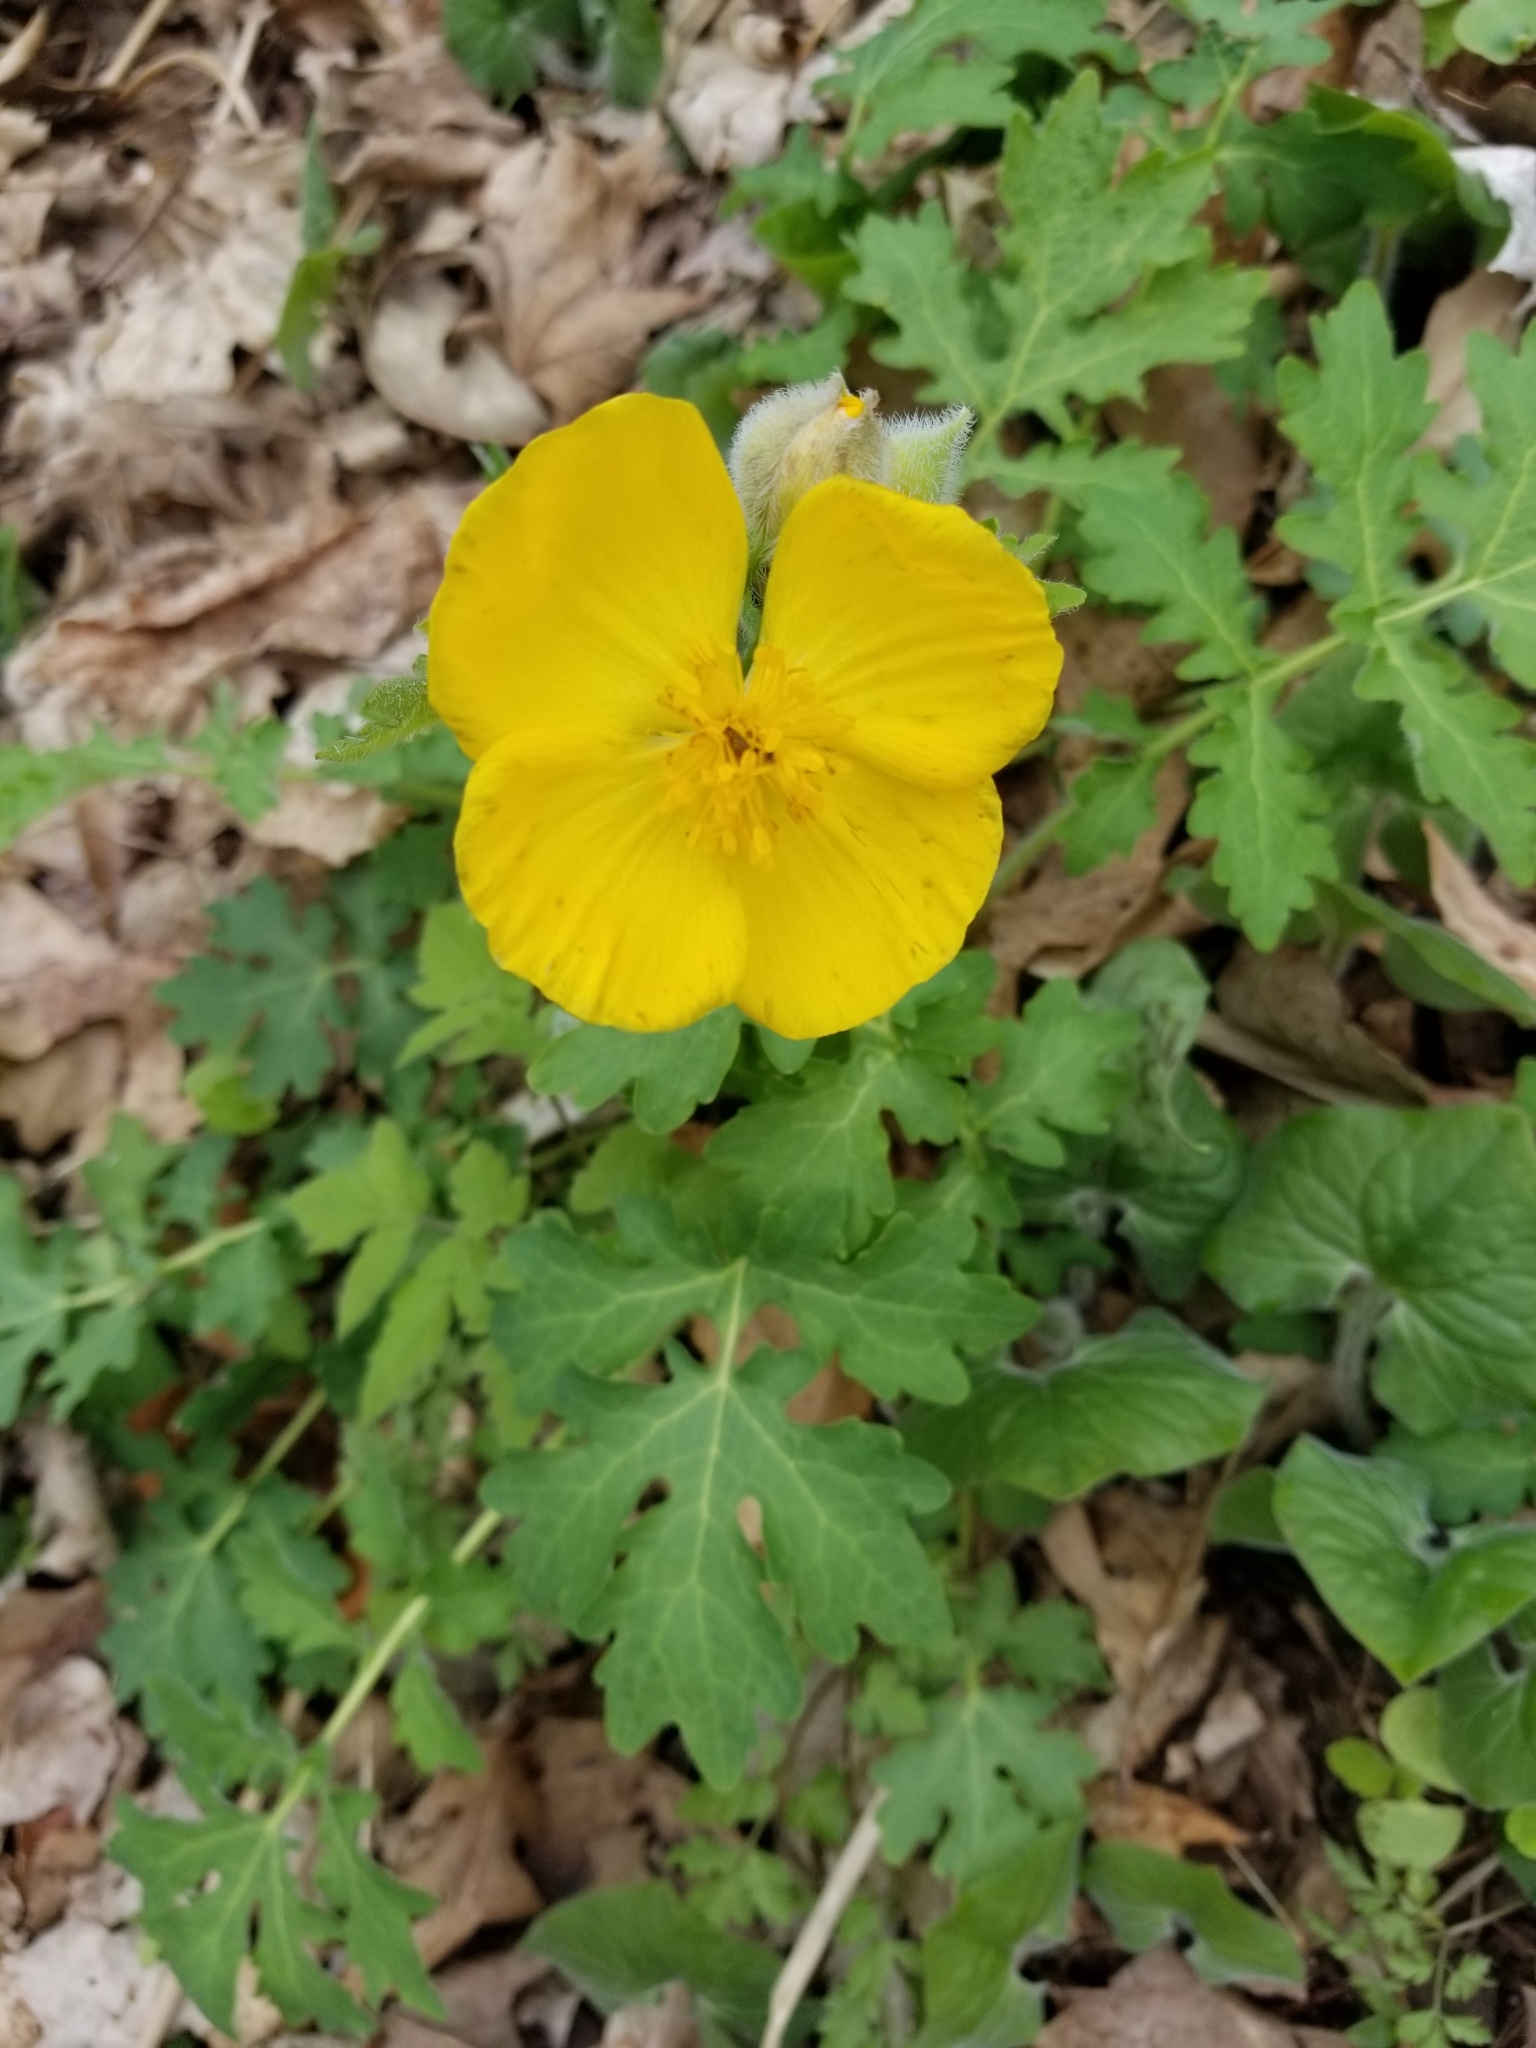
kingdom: Plantae
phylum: Tracheophyta
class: Magnoliopsida
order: Ranunculales
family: Papaveraceae
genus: Stylophorum
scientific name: Stylophorum diphyllum
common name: Celandine poppy
